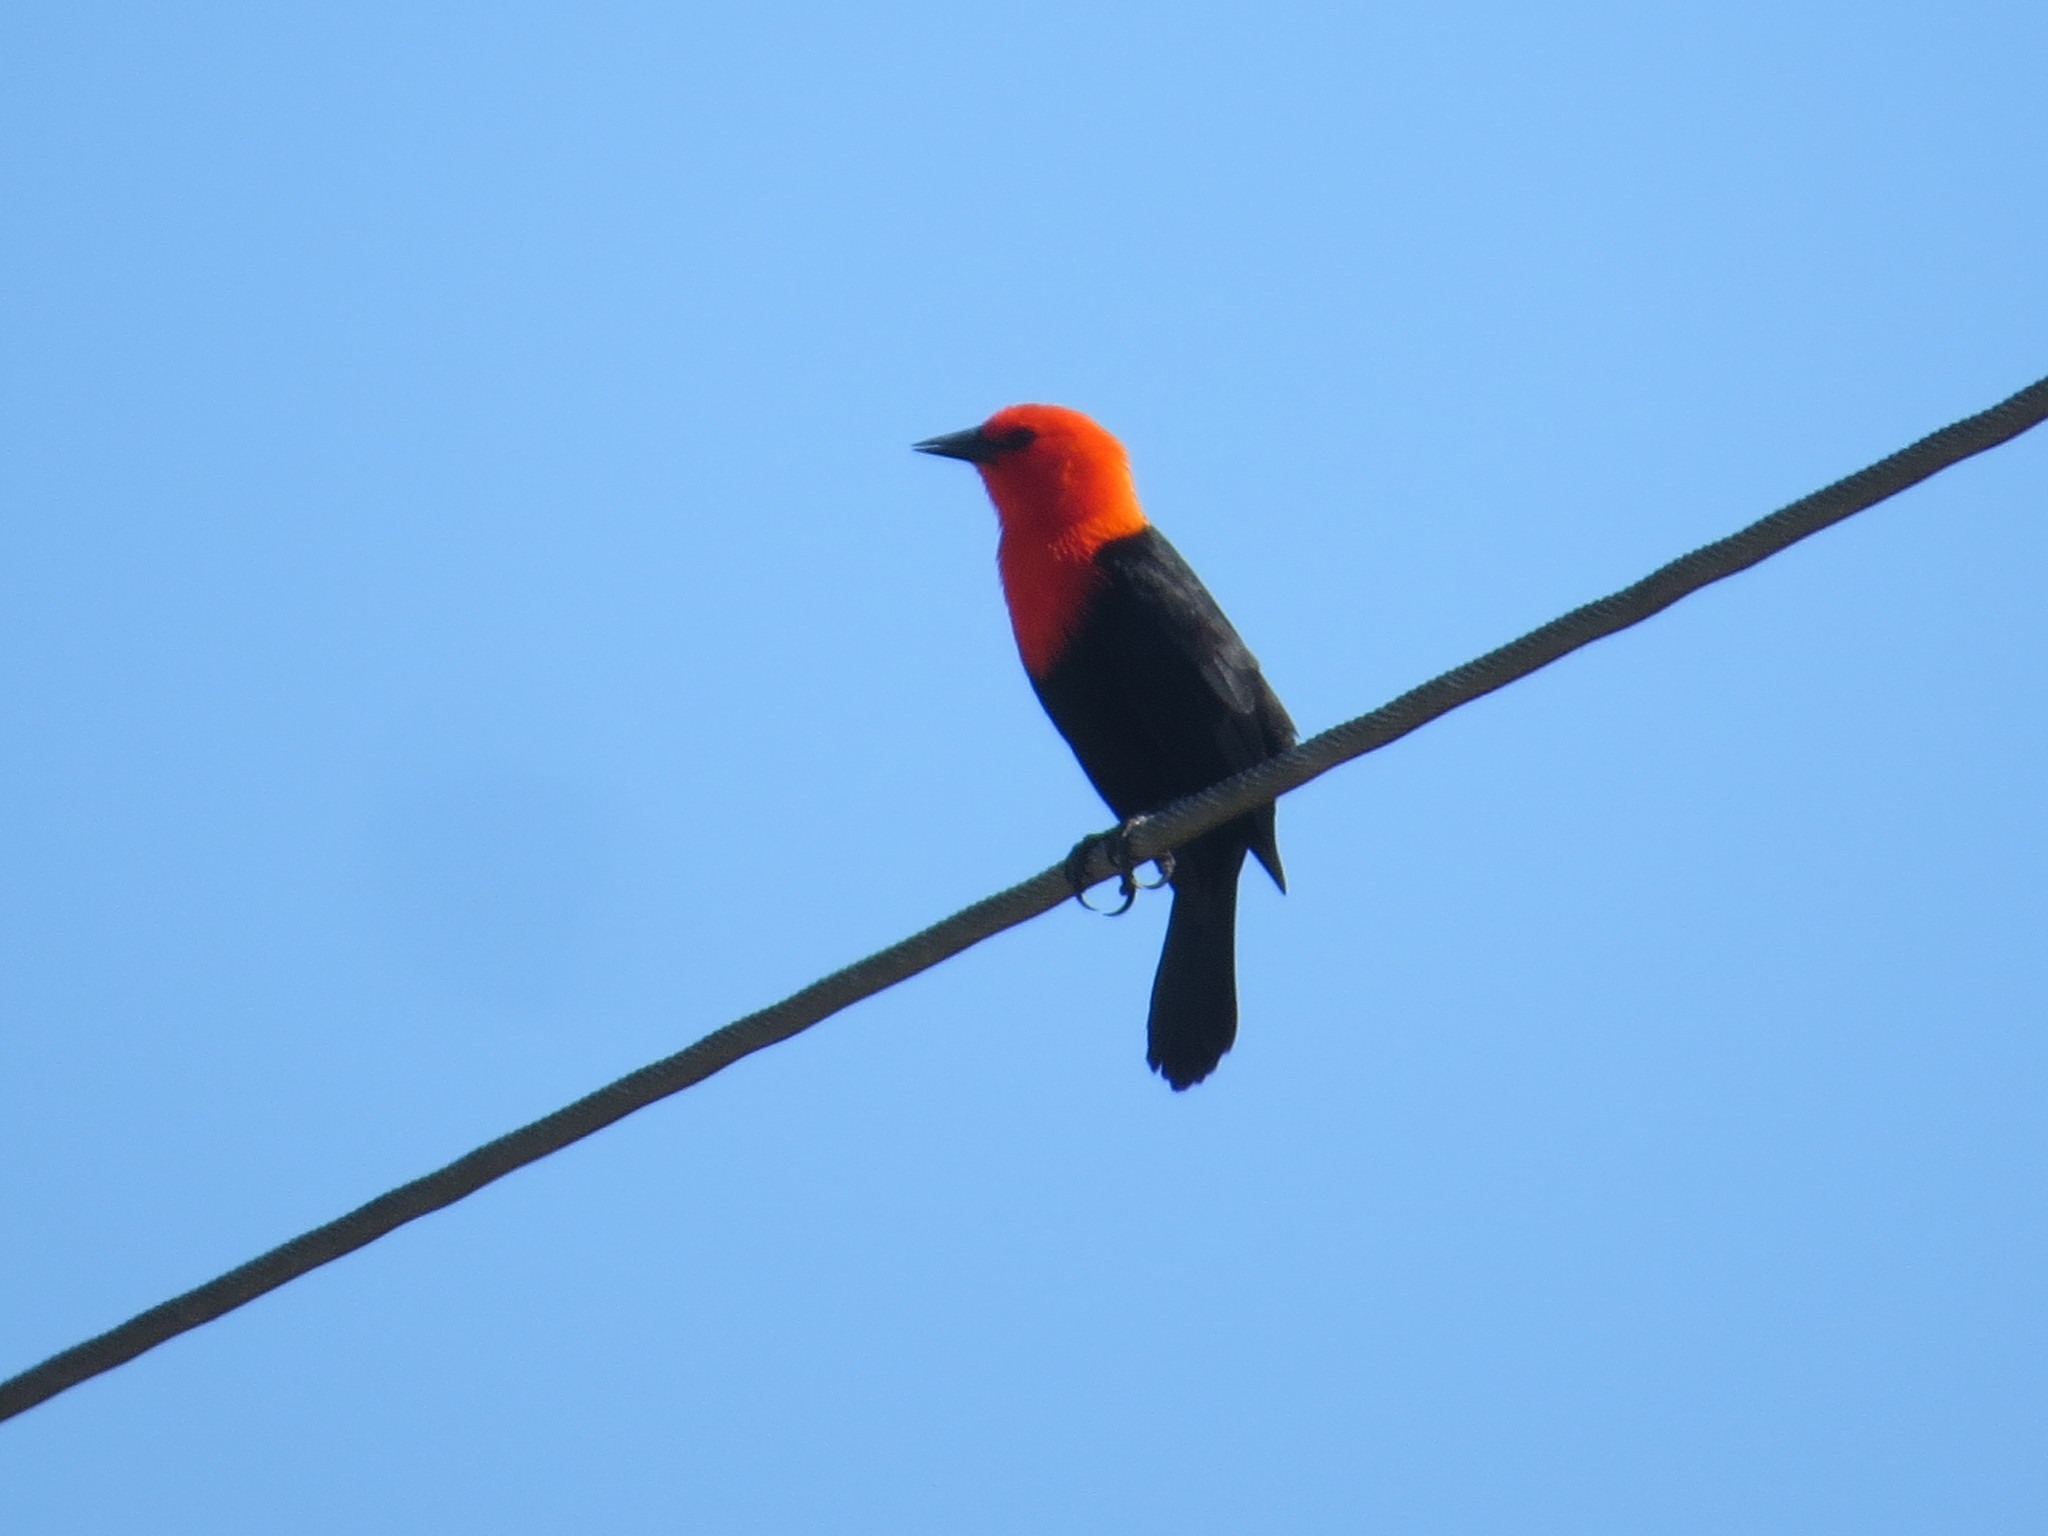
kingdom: Animalia
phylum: Chordata
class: Aves
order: Passeriformes
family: Icteridae
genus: Amblyramphus
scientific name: Amblyramphus holosericeus
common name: Scarlet-headed blackbird
